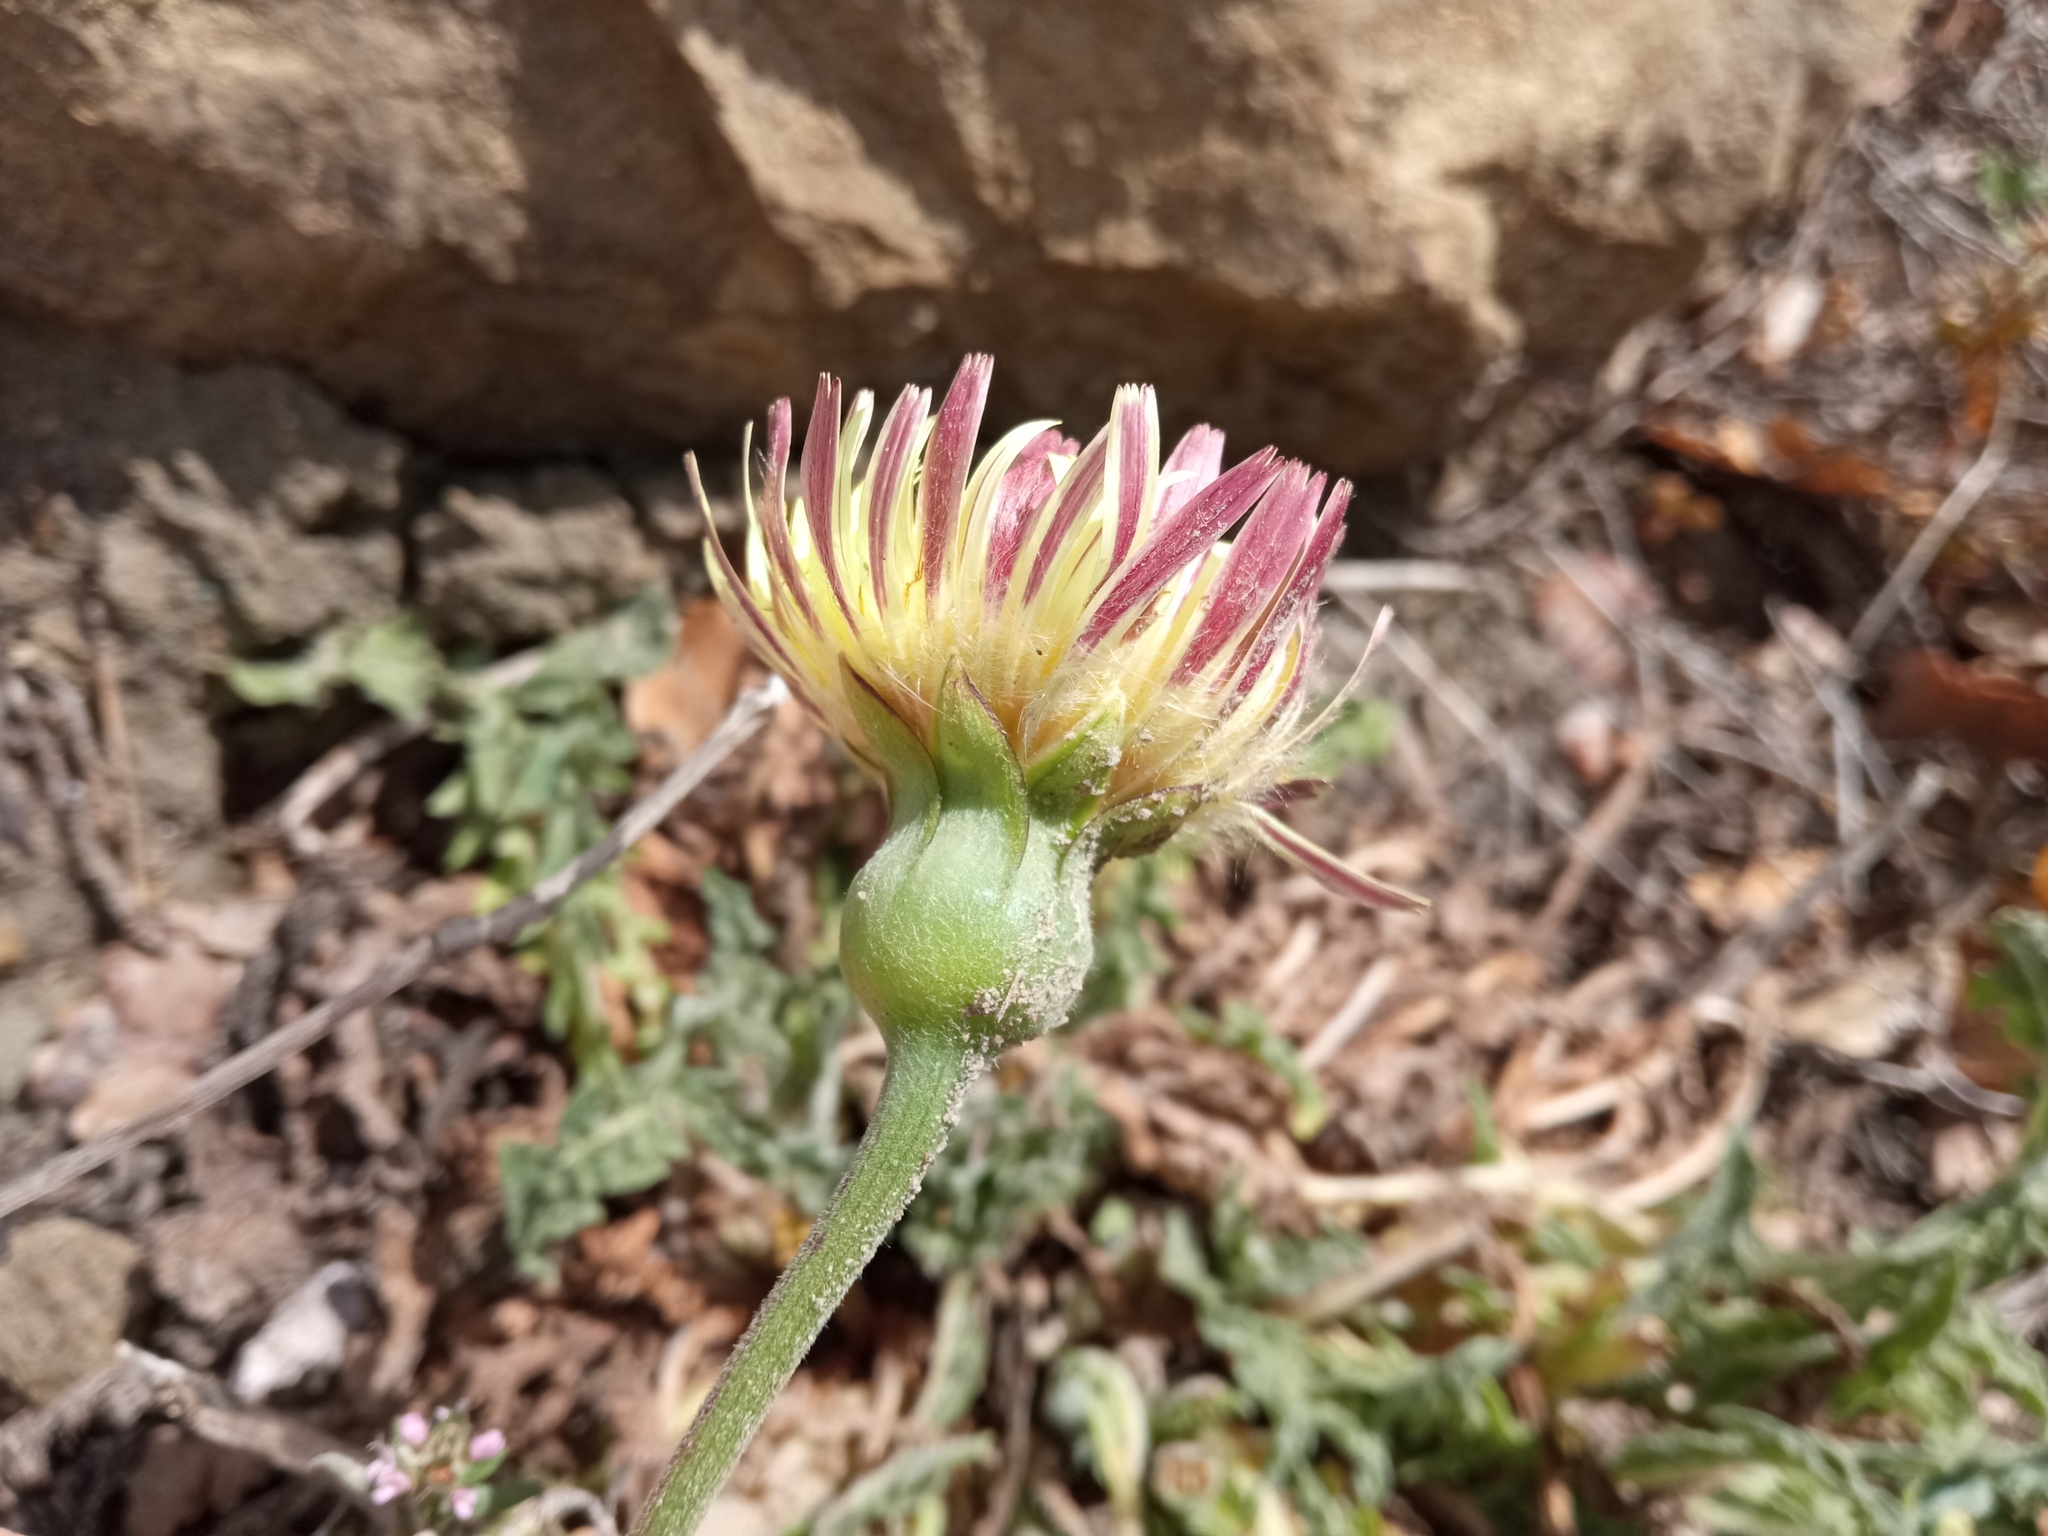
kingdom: Plantae
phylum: Tracheophyta
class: Magnoliopsida
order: Asterales
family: Asteraceae
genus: Urospermum
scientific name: Urospermum dalechampii
